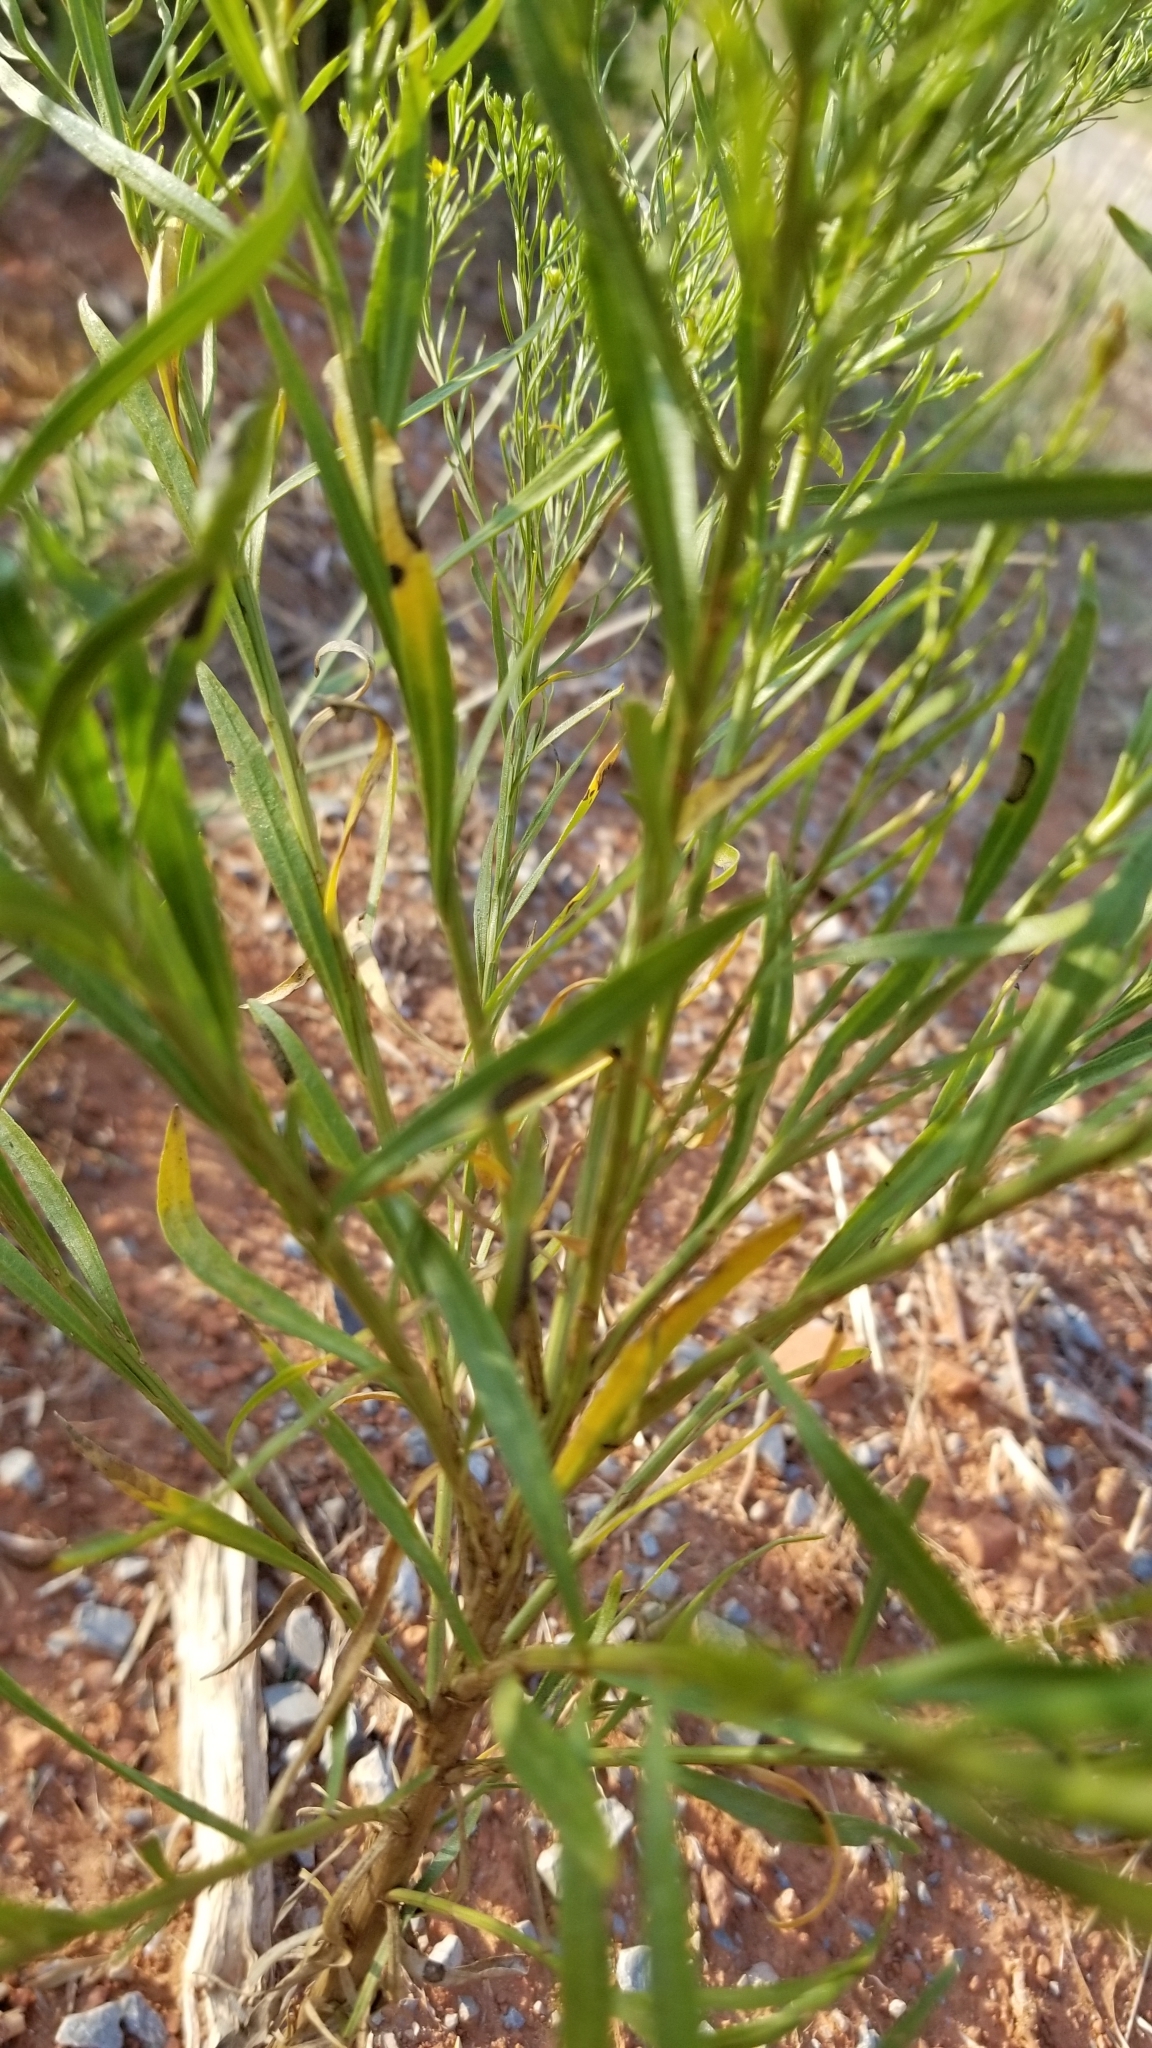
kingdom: Plantae
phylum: Tracheophyta
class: Magnoliopsida
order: Asterales
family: Asteraceae
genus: Amphiachyris
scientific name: Amphiachyris dracunculoides
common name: Broomweed
